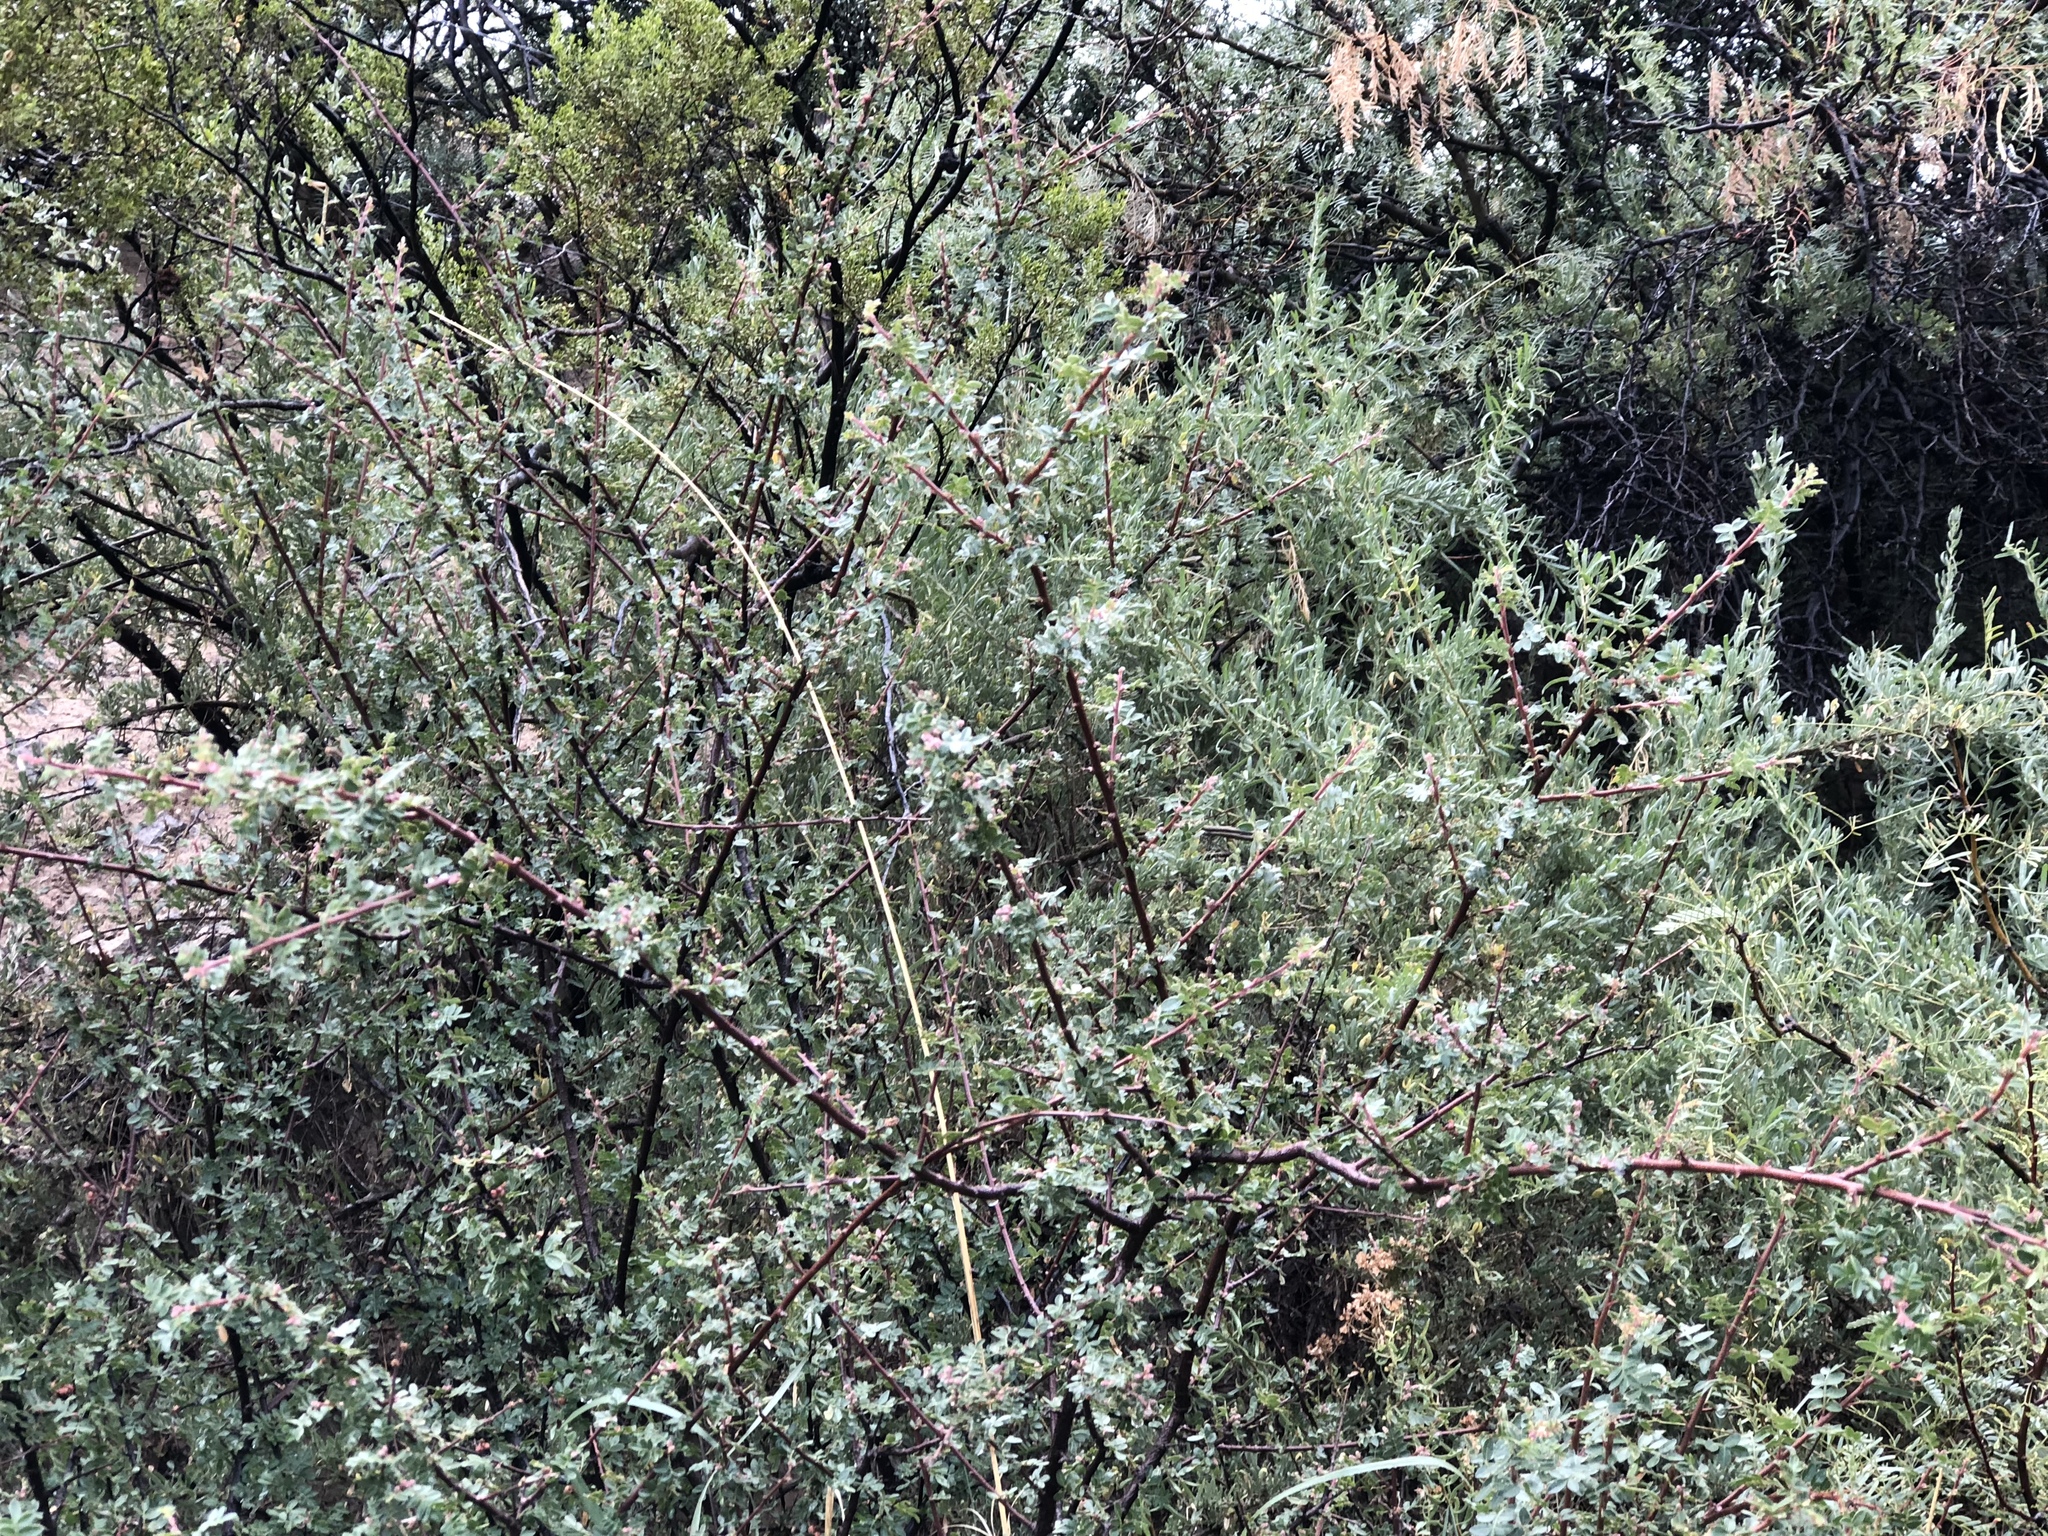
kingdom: Plantae
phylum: Tracheophyta
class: Magnoliopsida
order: Sapindales
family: Anacardiaceae
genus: Rhus
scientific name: Rhus microphylla
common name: Desert sumac
